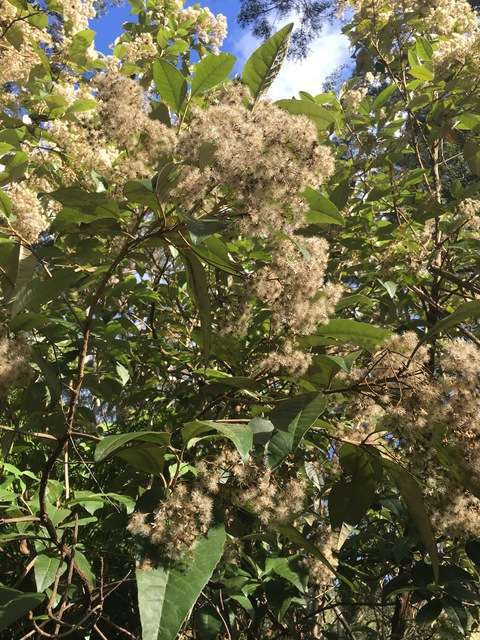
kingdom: Plantae
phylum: Tracheophyta
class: Magnoliopsida
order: Asterales
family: Asteraceae
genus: Olearia
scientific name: Olearia argophylla
